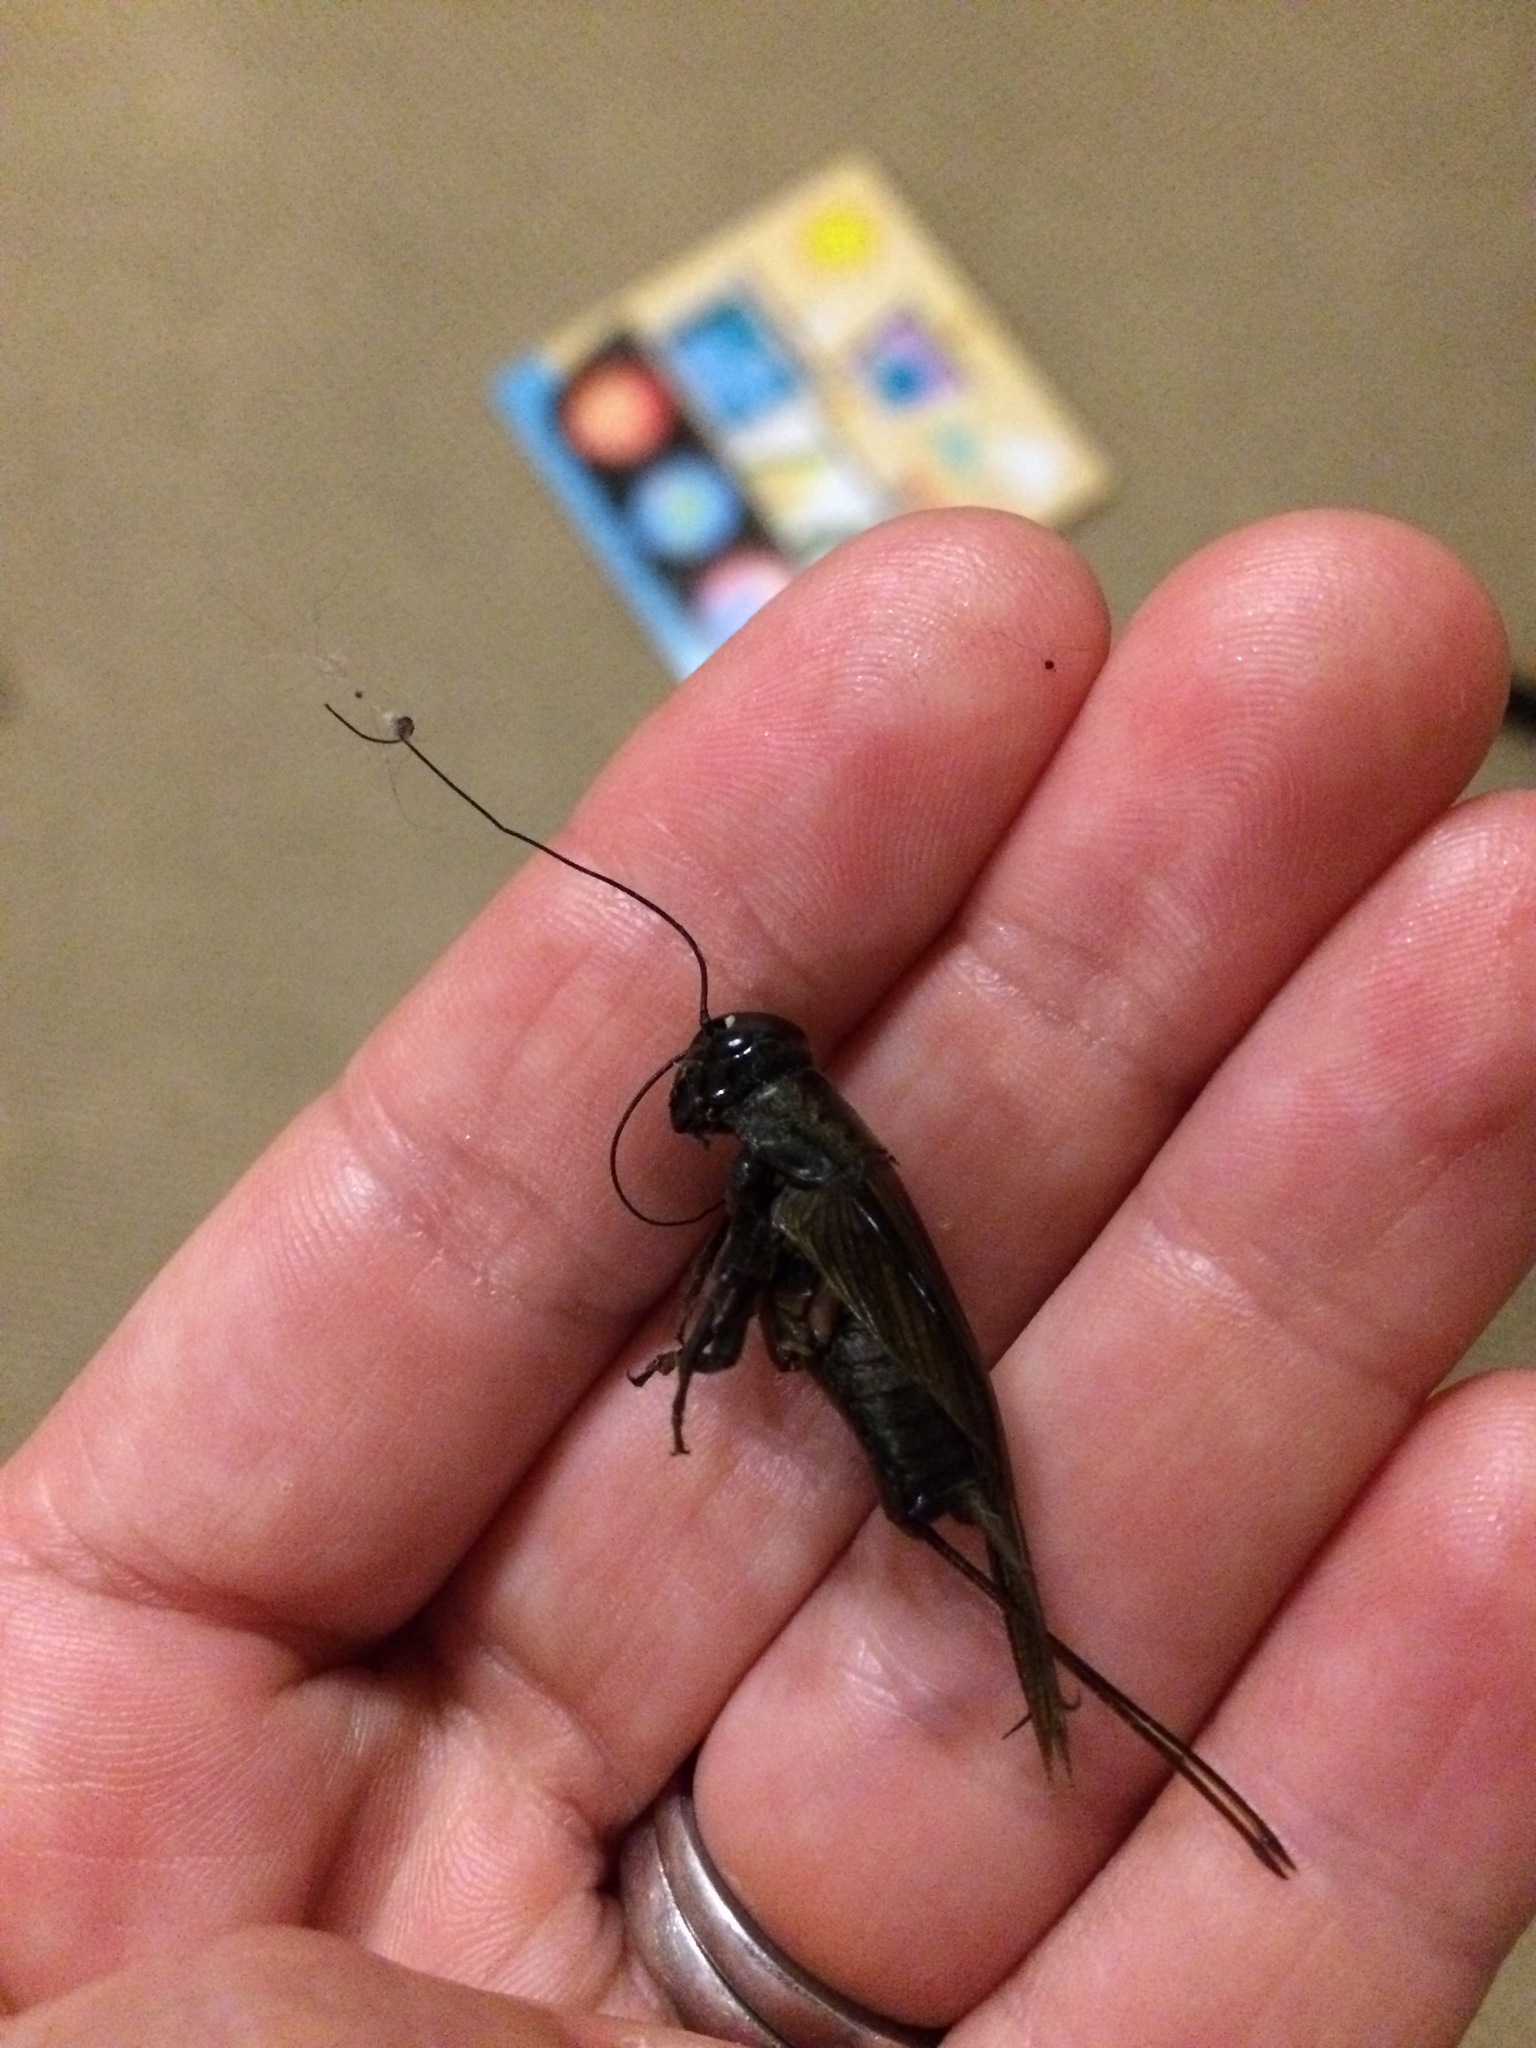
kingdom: Animalia
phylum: Arthropoda
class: Insecta
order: Orthoptera
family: Gryllidae
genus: Teleogryllus
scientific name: Teleogryllus commodus
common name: Black field cricket
